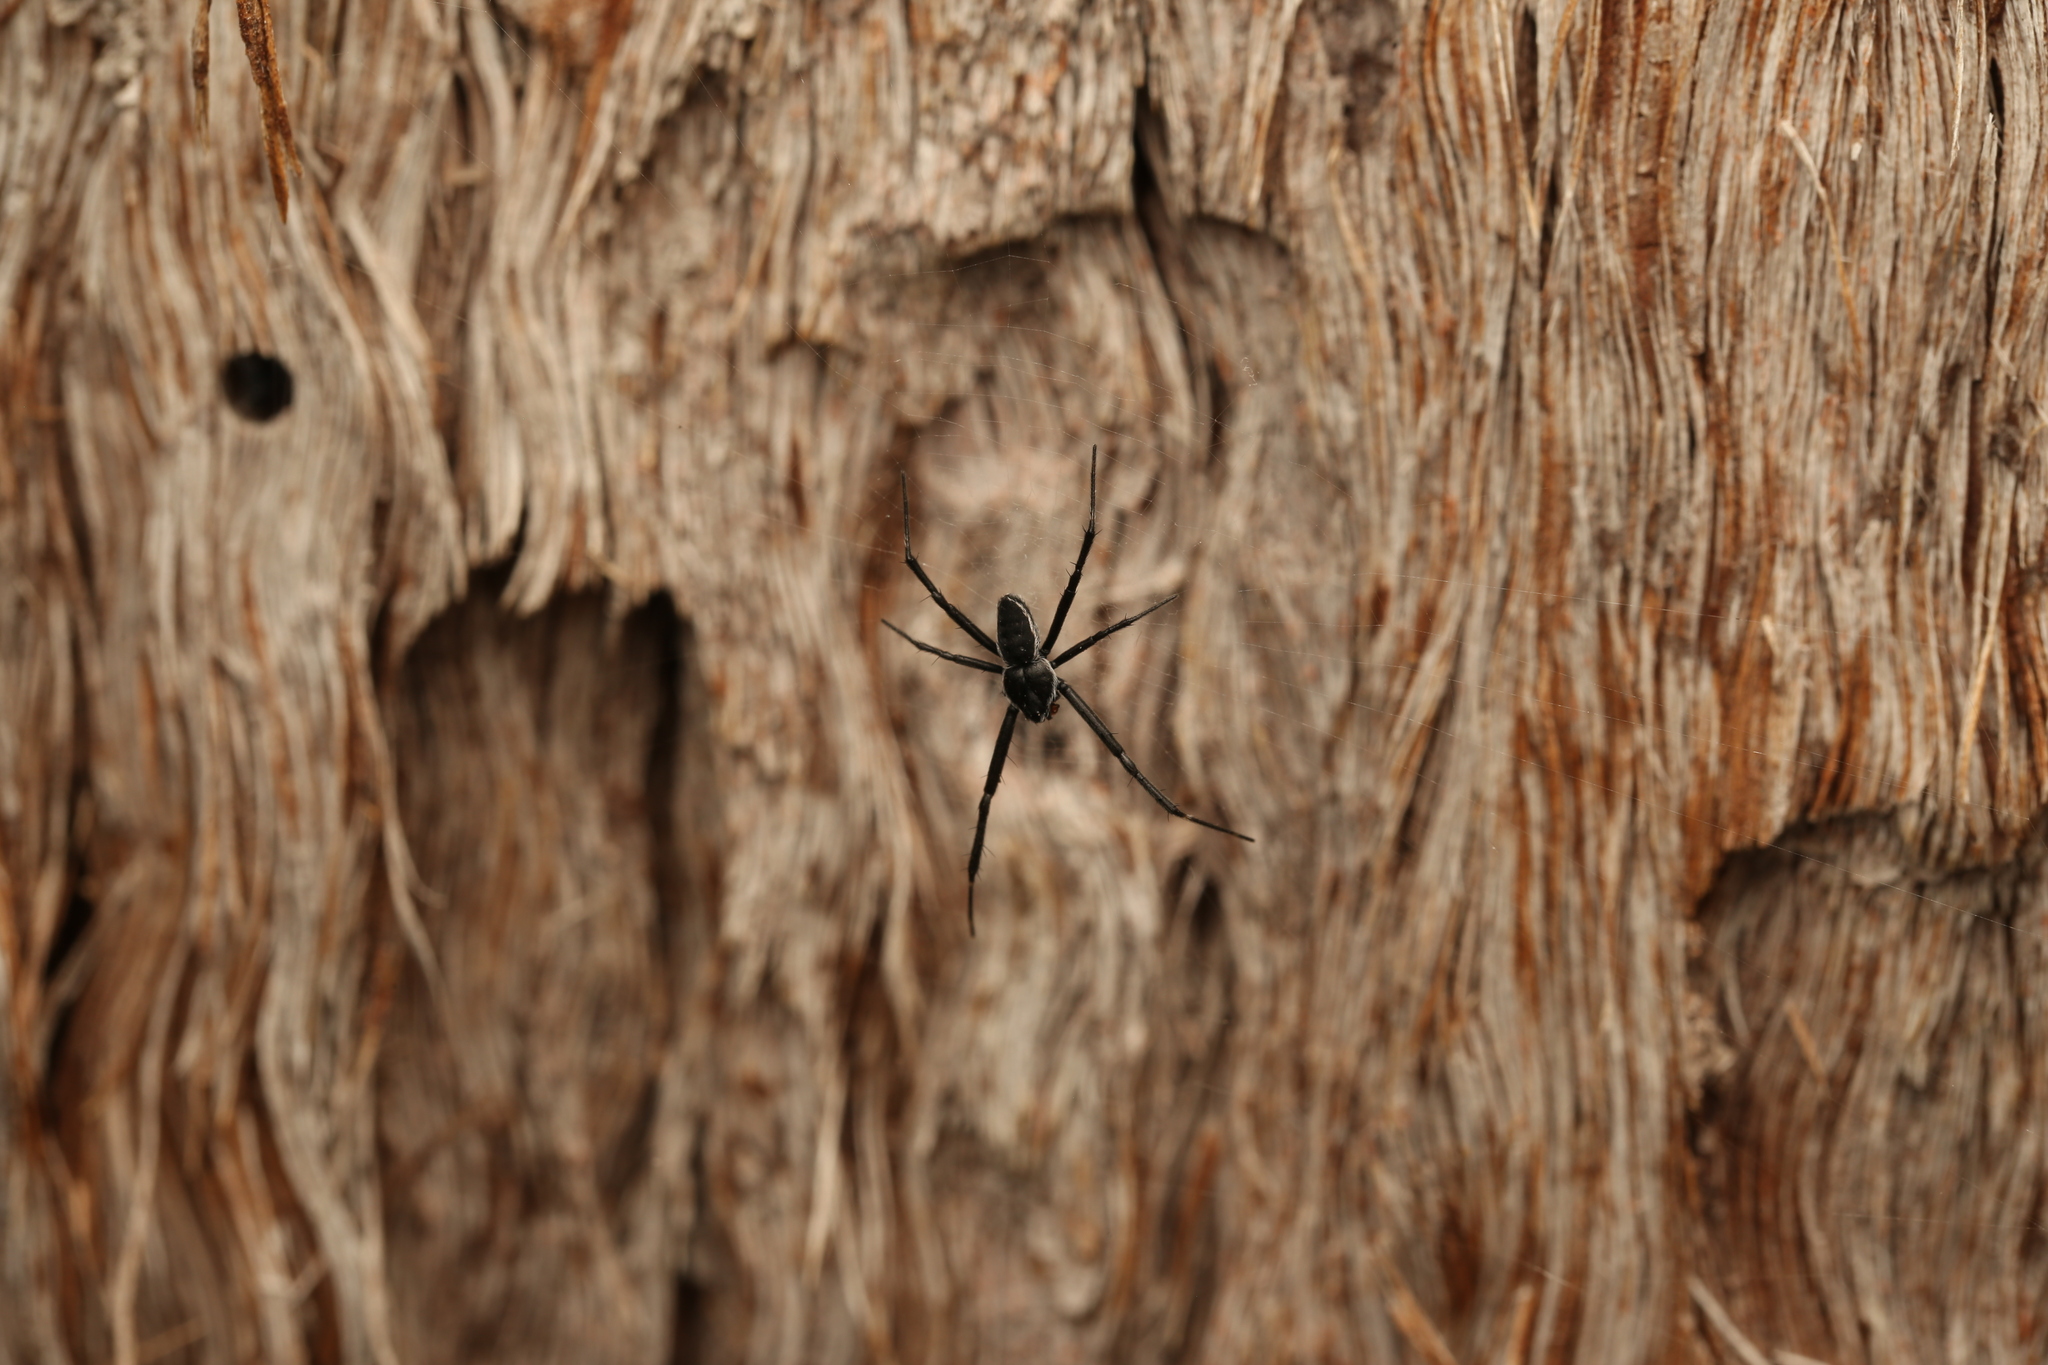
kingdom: Animalia
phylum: Arthropoda
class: Arachnida
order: Araneae
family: Araneidae
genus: Argiope
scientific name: Argiope ocyaloides
